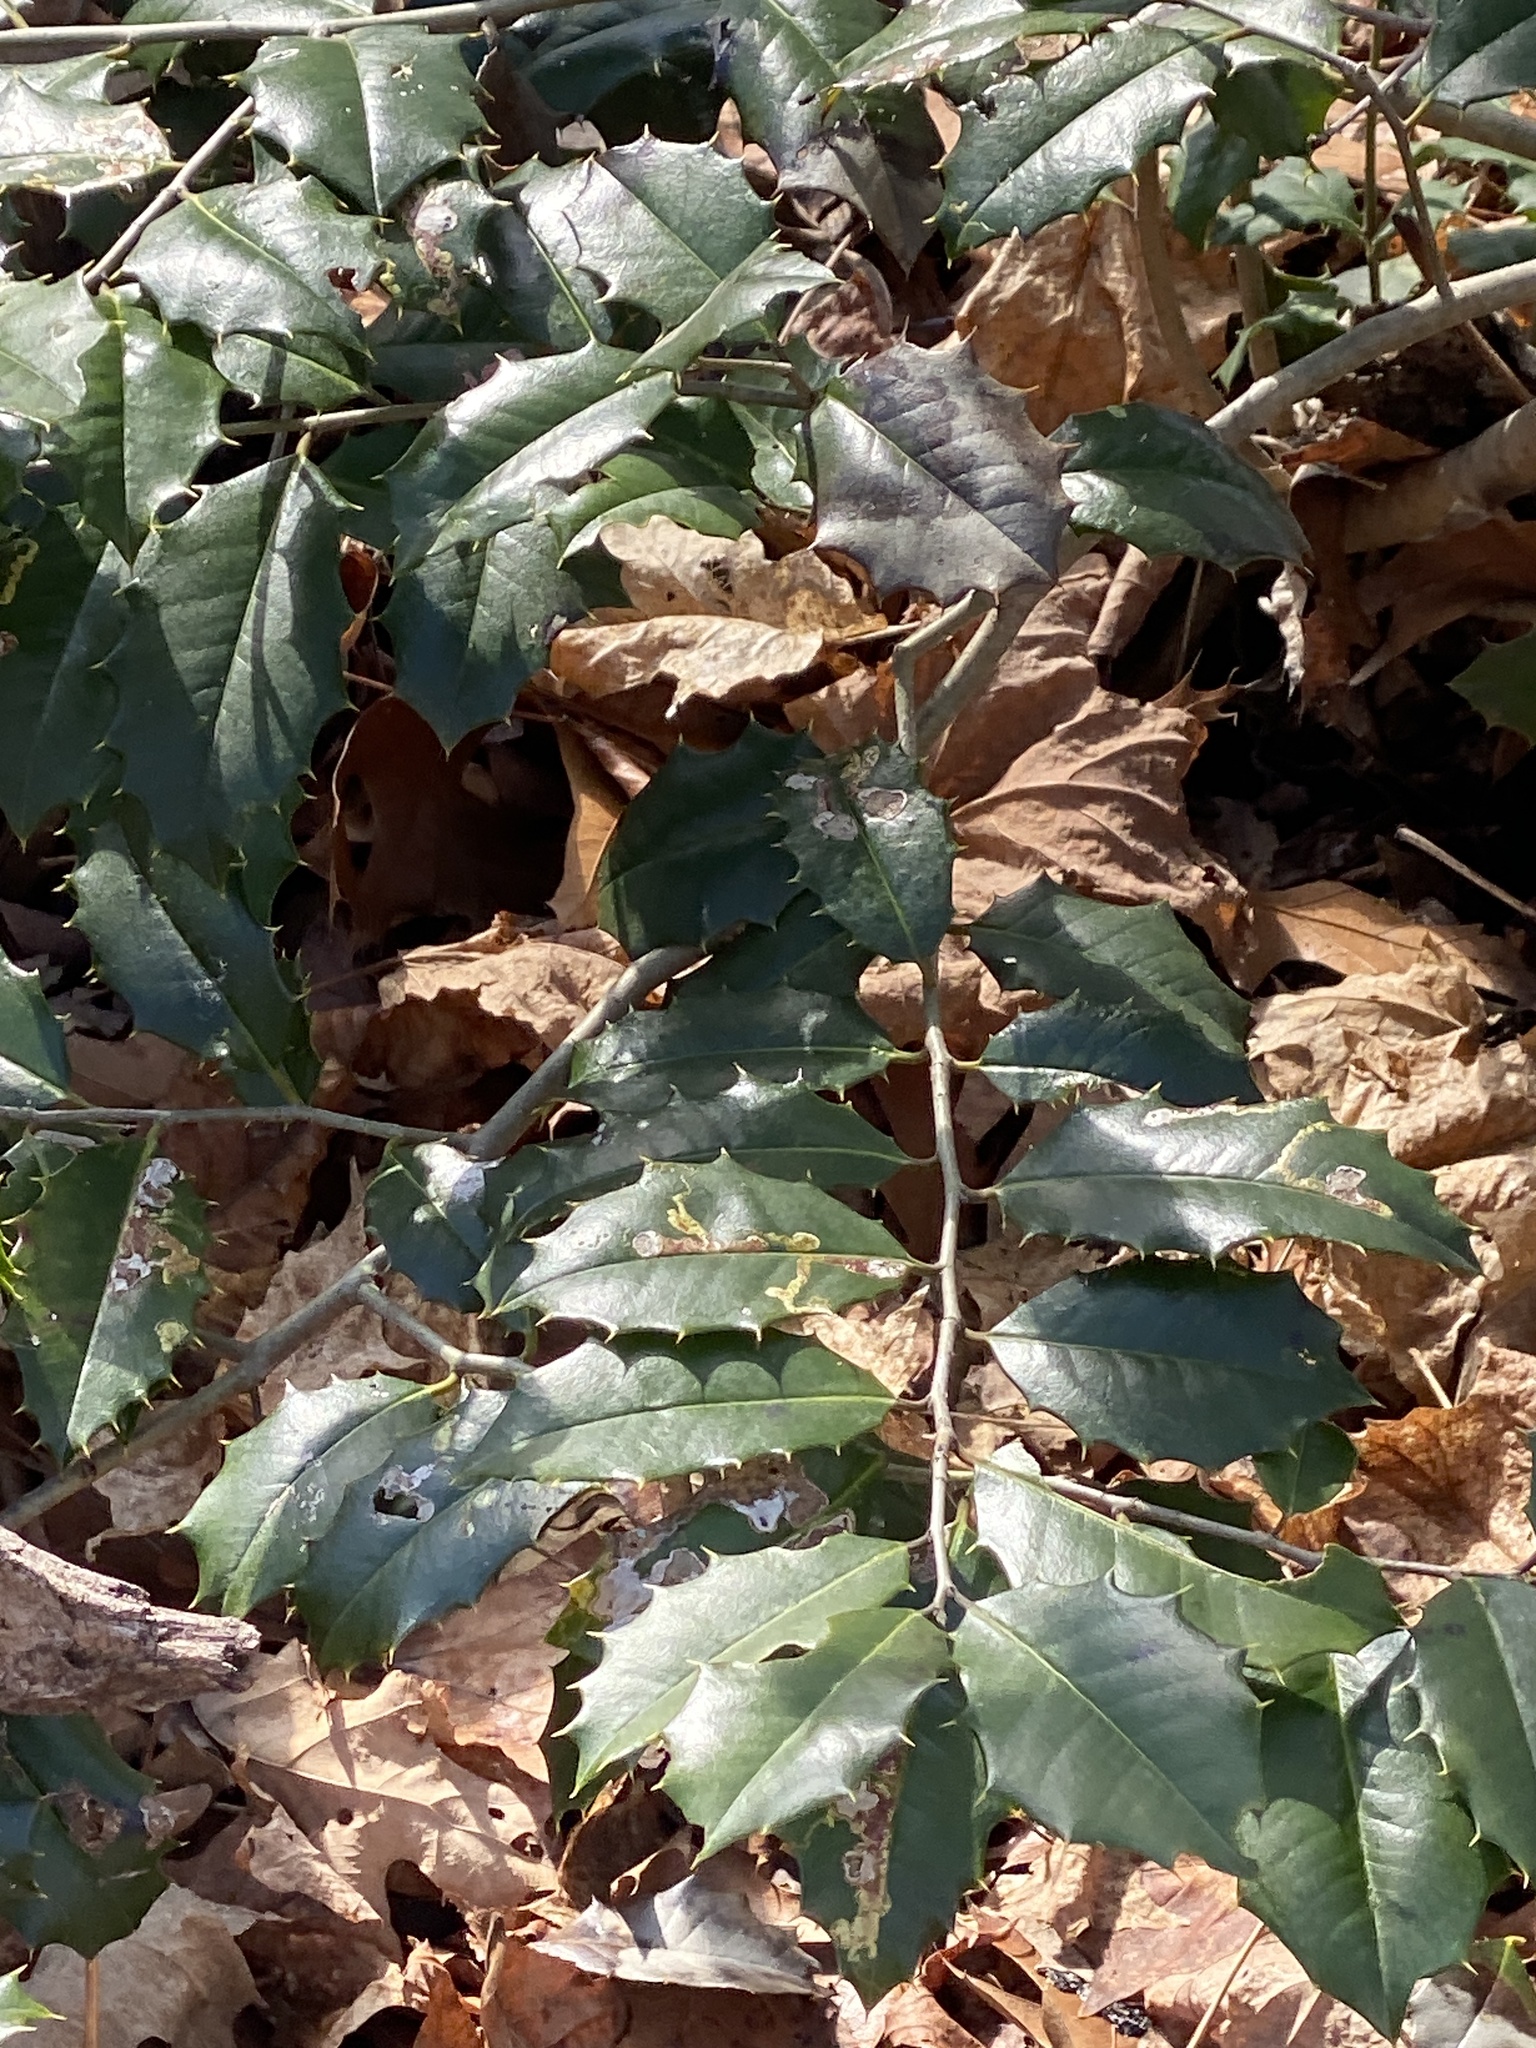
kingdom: Plantae
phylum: Tracheophyta
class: Magnoliopsida
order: Aquifoliales
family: Aquifoliaceae
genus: Ilex
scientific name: Ilex opaca
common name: American holly
